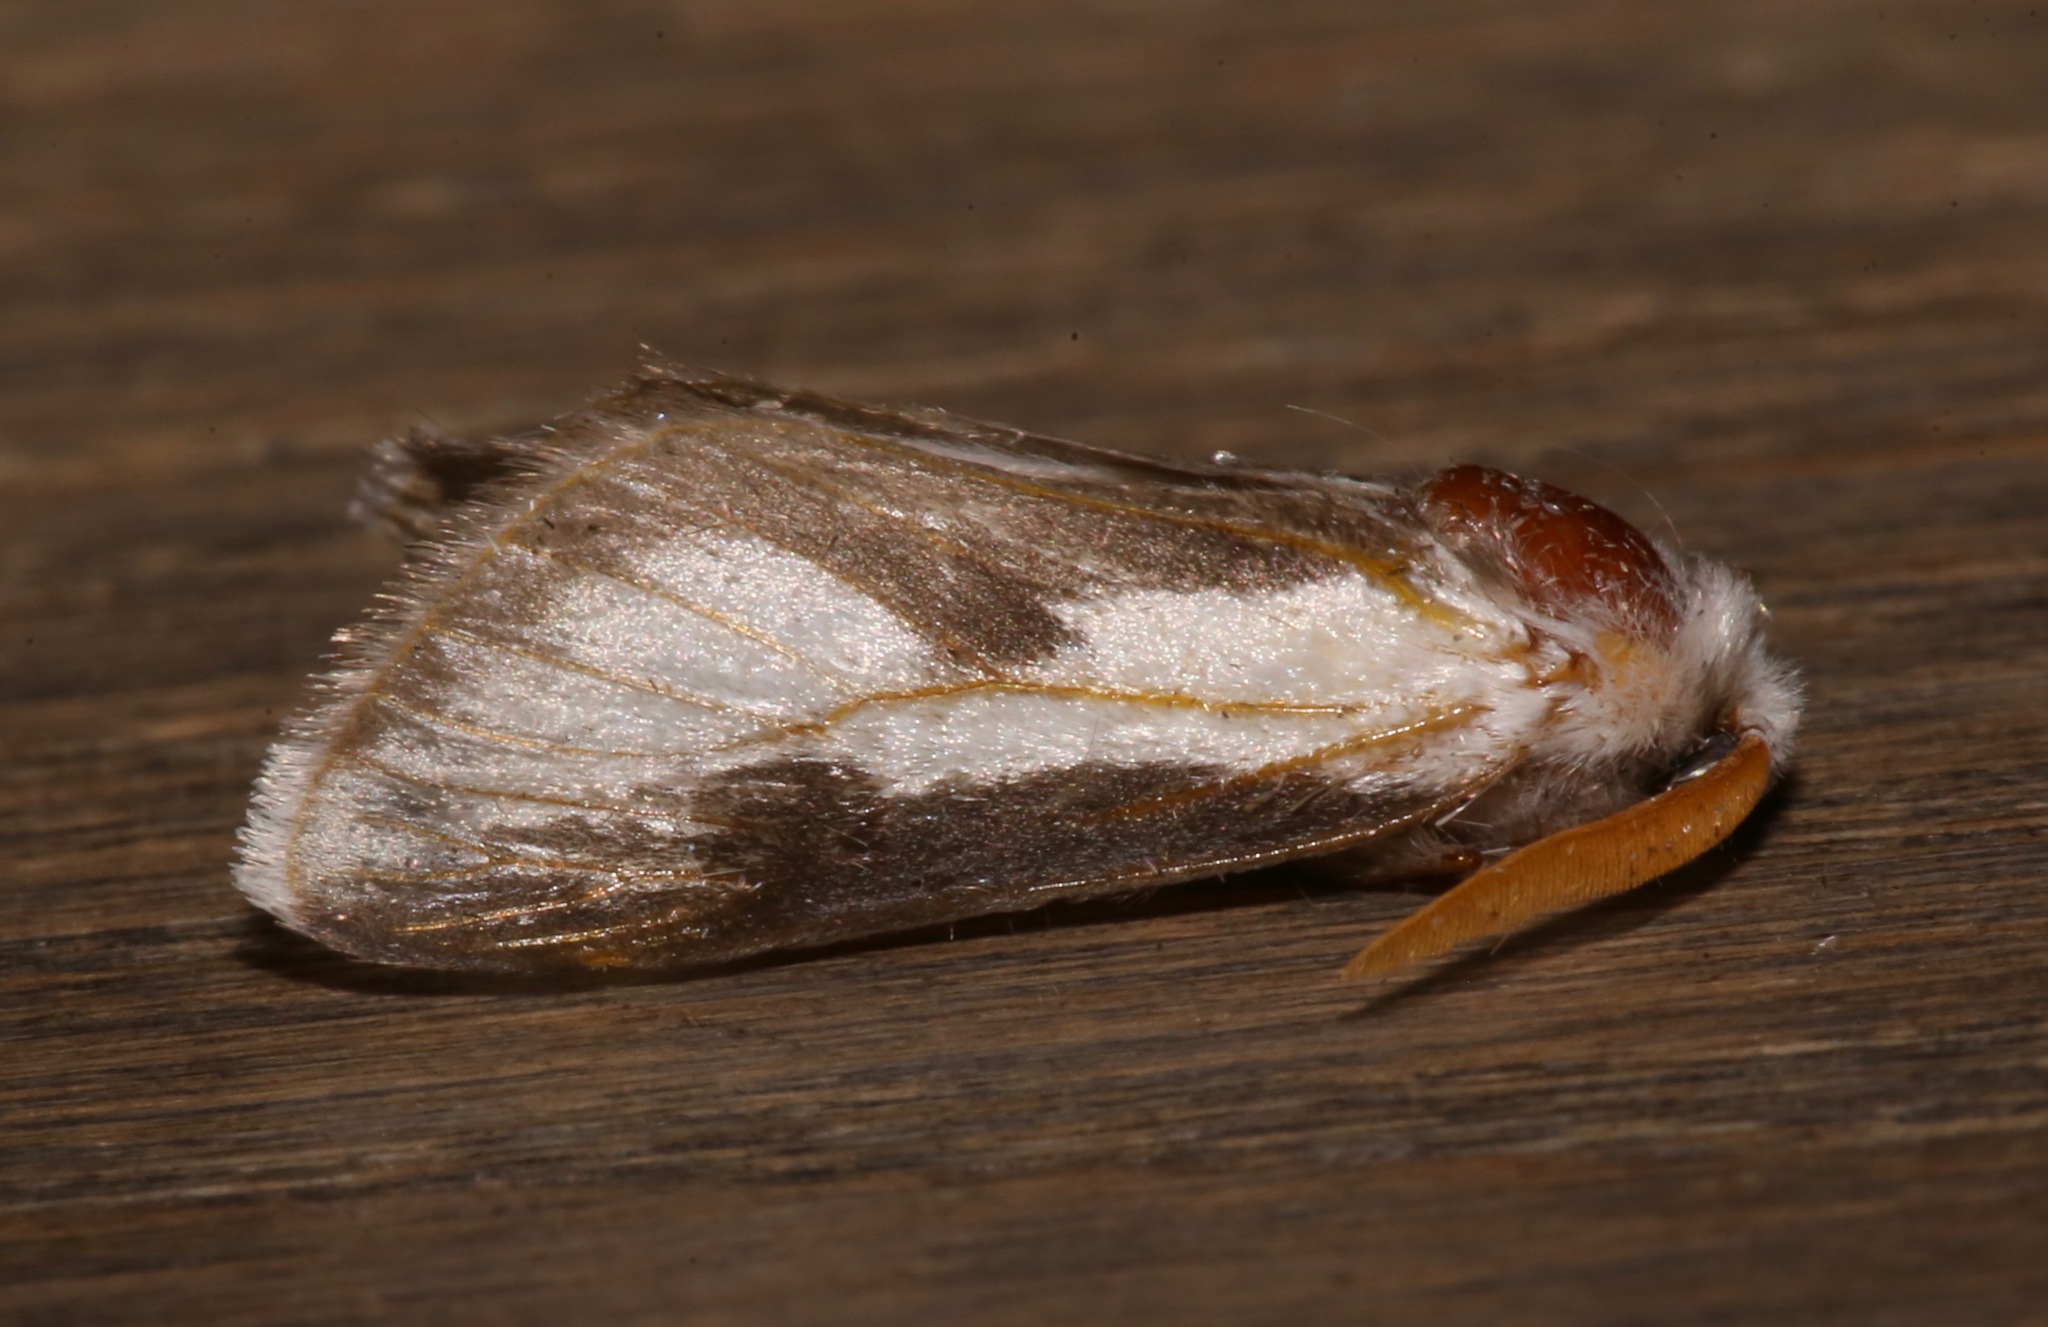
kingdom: Animalia
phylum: Arthropoda
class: Insecta
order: Lepidoptera
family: Megalopygidae
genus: Norape
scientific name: Norape tener
